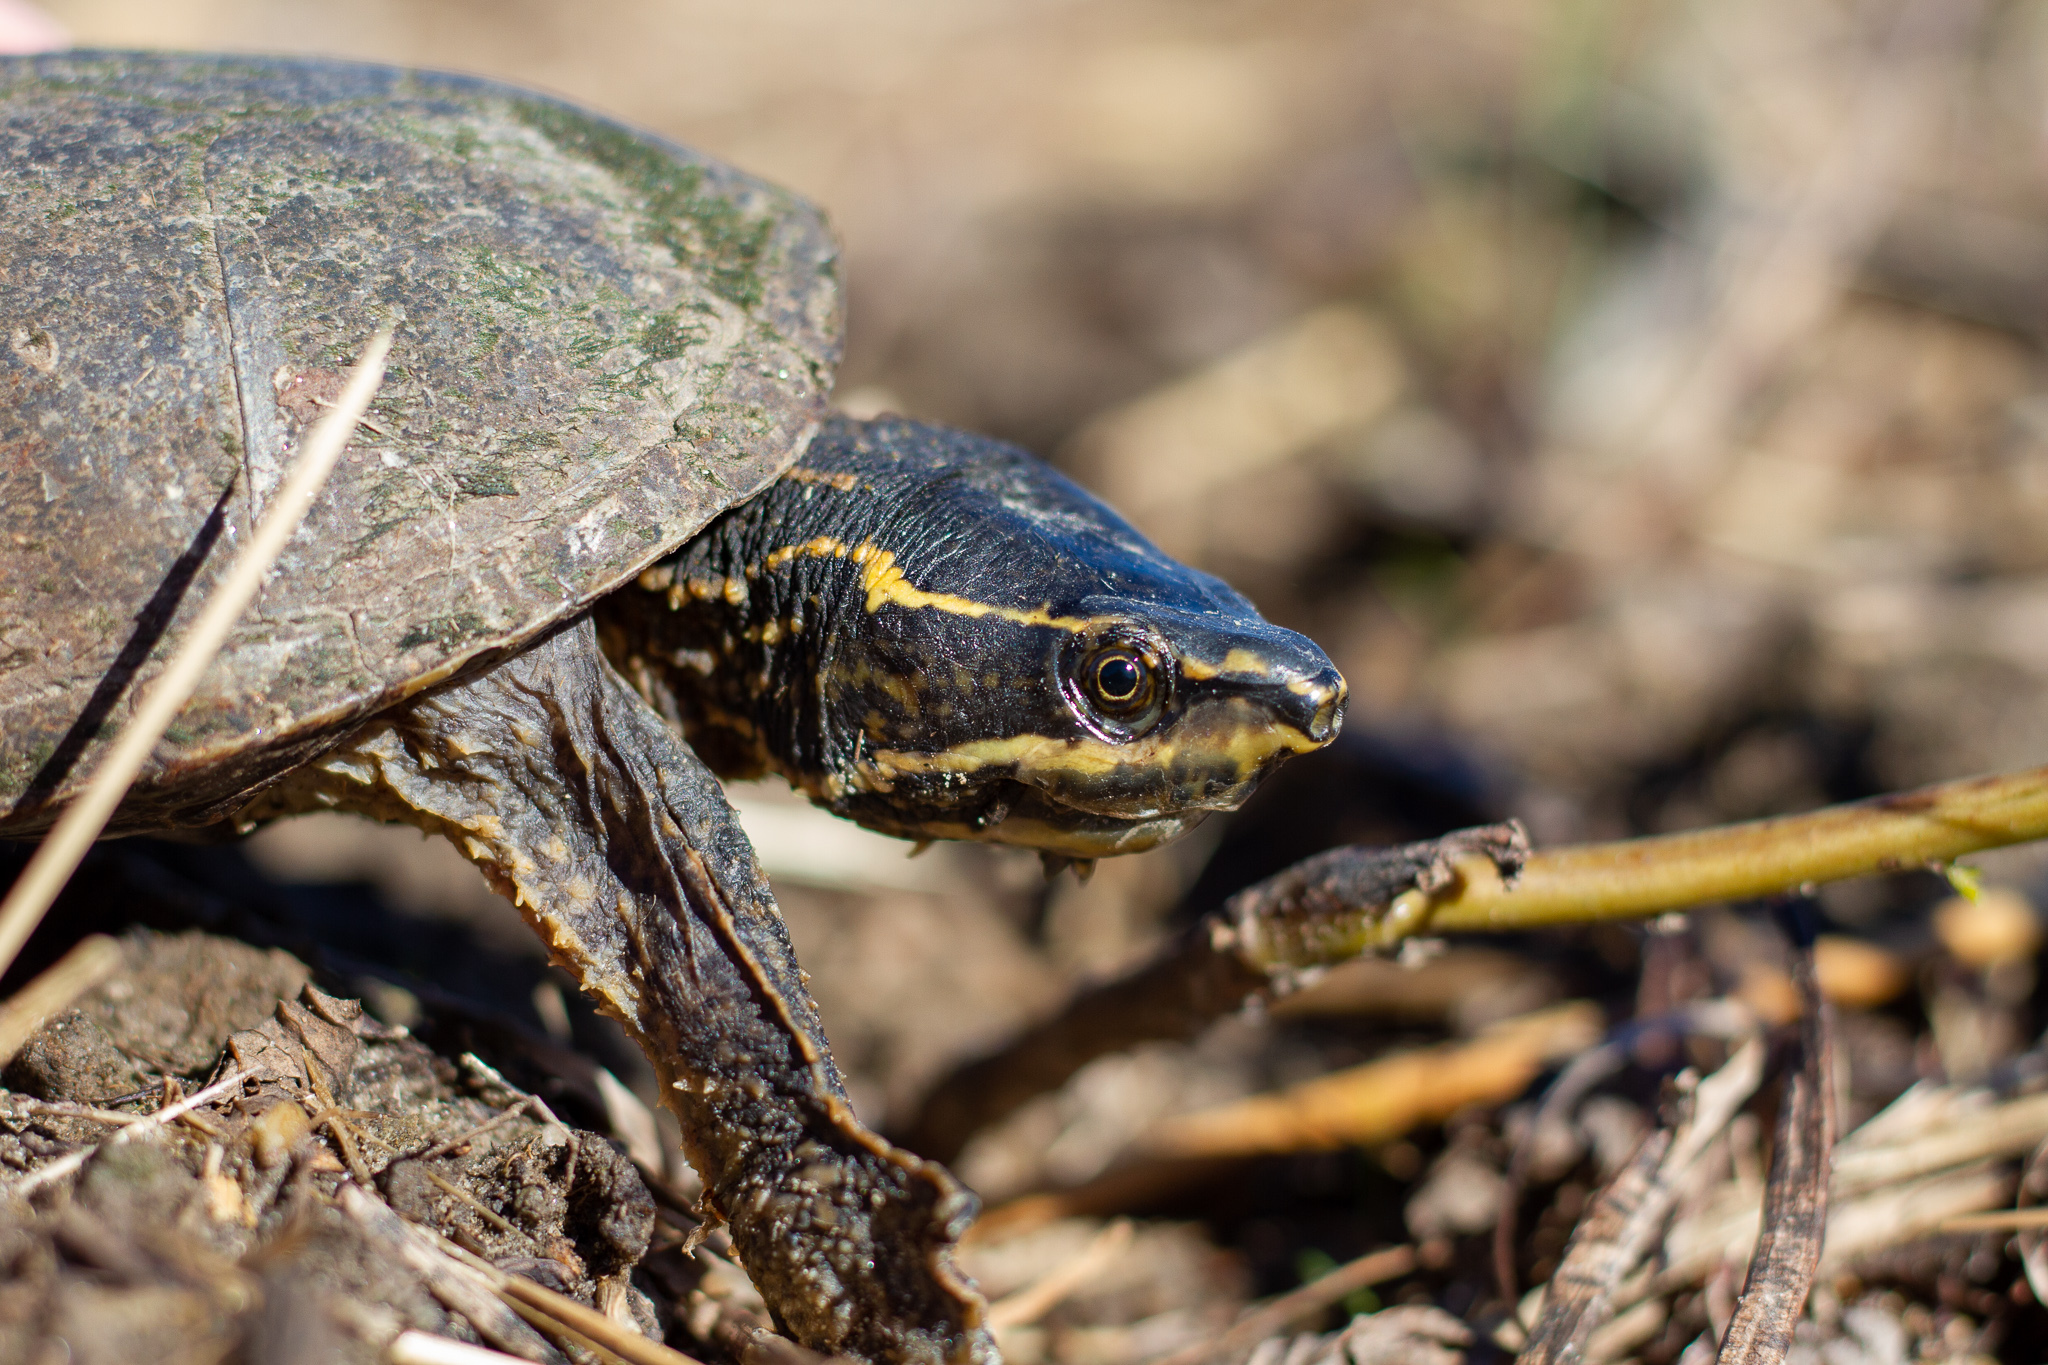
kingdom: Animalia
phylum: Chordata
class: Testudines
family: Kinosternidae
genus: Sternotherus
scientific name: Sternotherus odoratus
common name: Common musk turtle
